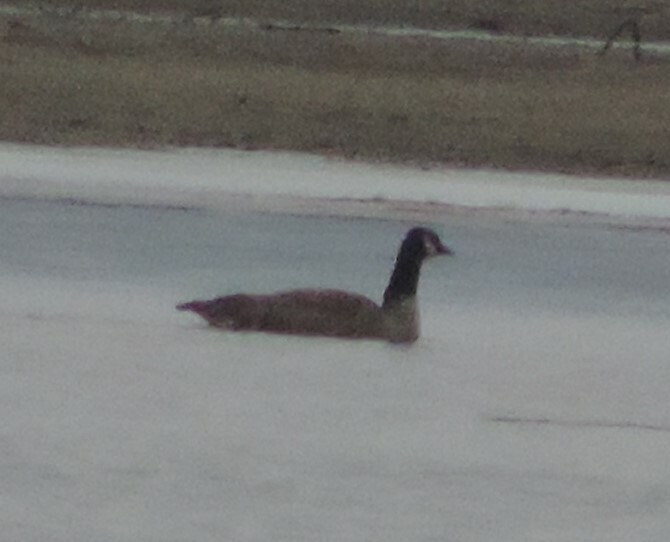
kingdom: Animalia
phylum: Chordata
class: Aves
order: Anseriformes
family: Anatidae
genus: Branta
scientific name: Branta canadensis
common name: Canada goose
